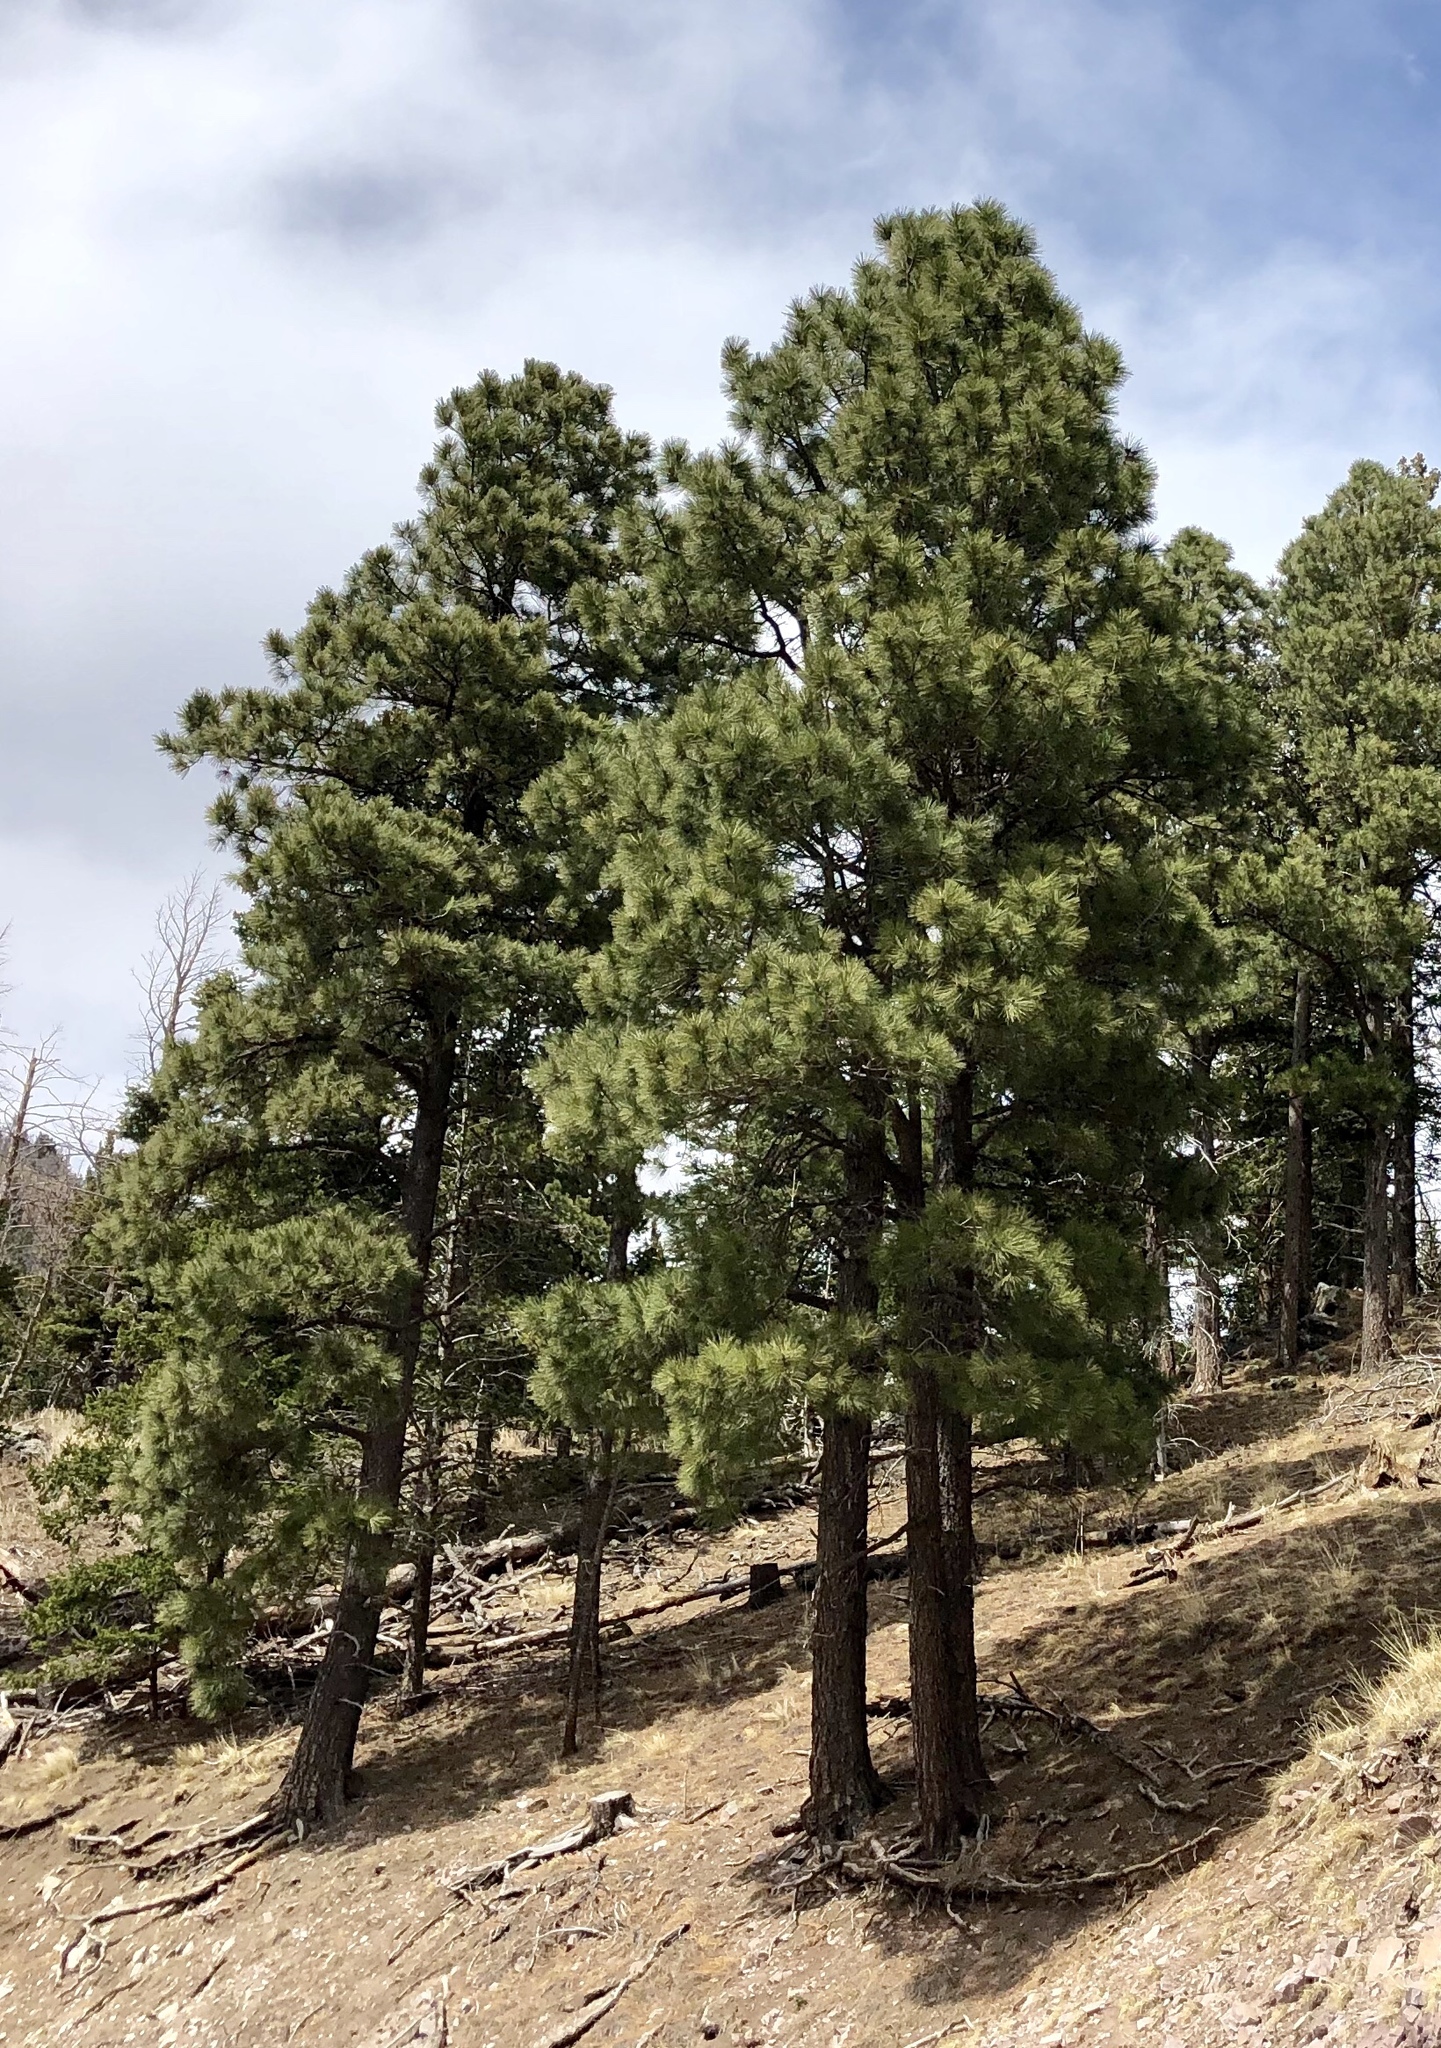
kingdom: Plantae
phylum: Tracheophyta
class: Pinopsida
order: Pinales
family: Pinaceae
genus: Pinus
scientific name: Pinus ponderosa
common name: Western yellow-pine
